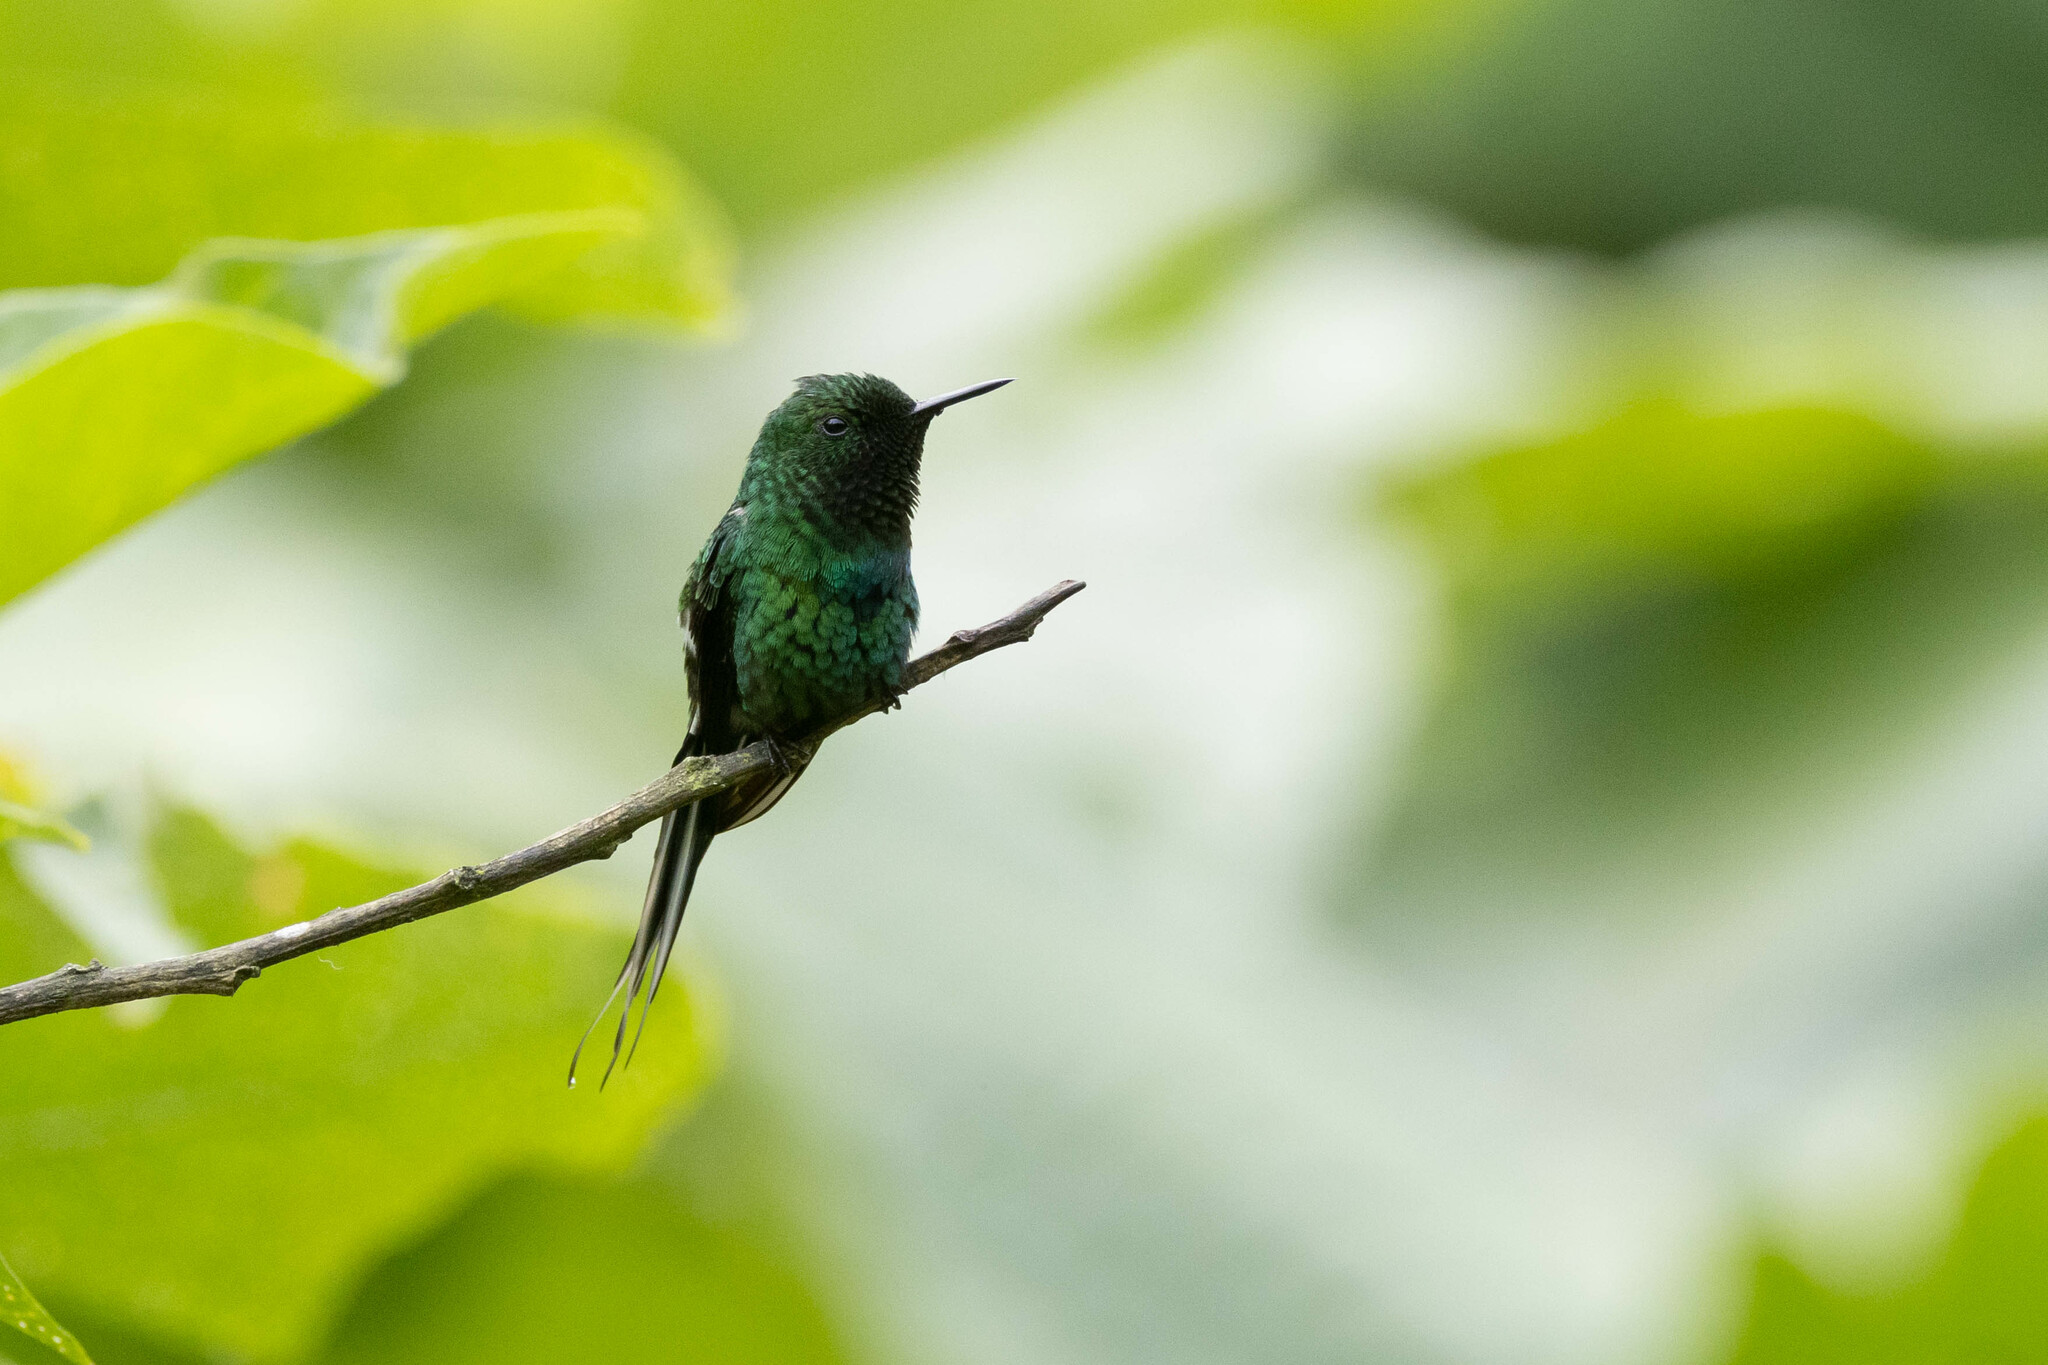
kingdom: Animalia
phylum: Chordata
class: Aves
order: Apodiformes
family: Trochilidae
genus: Discosura
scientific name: Discosura conversii
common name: Green thorntail
